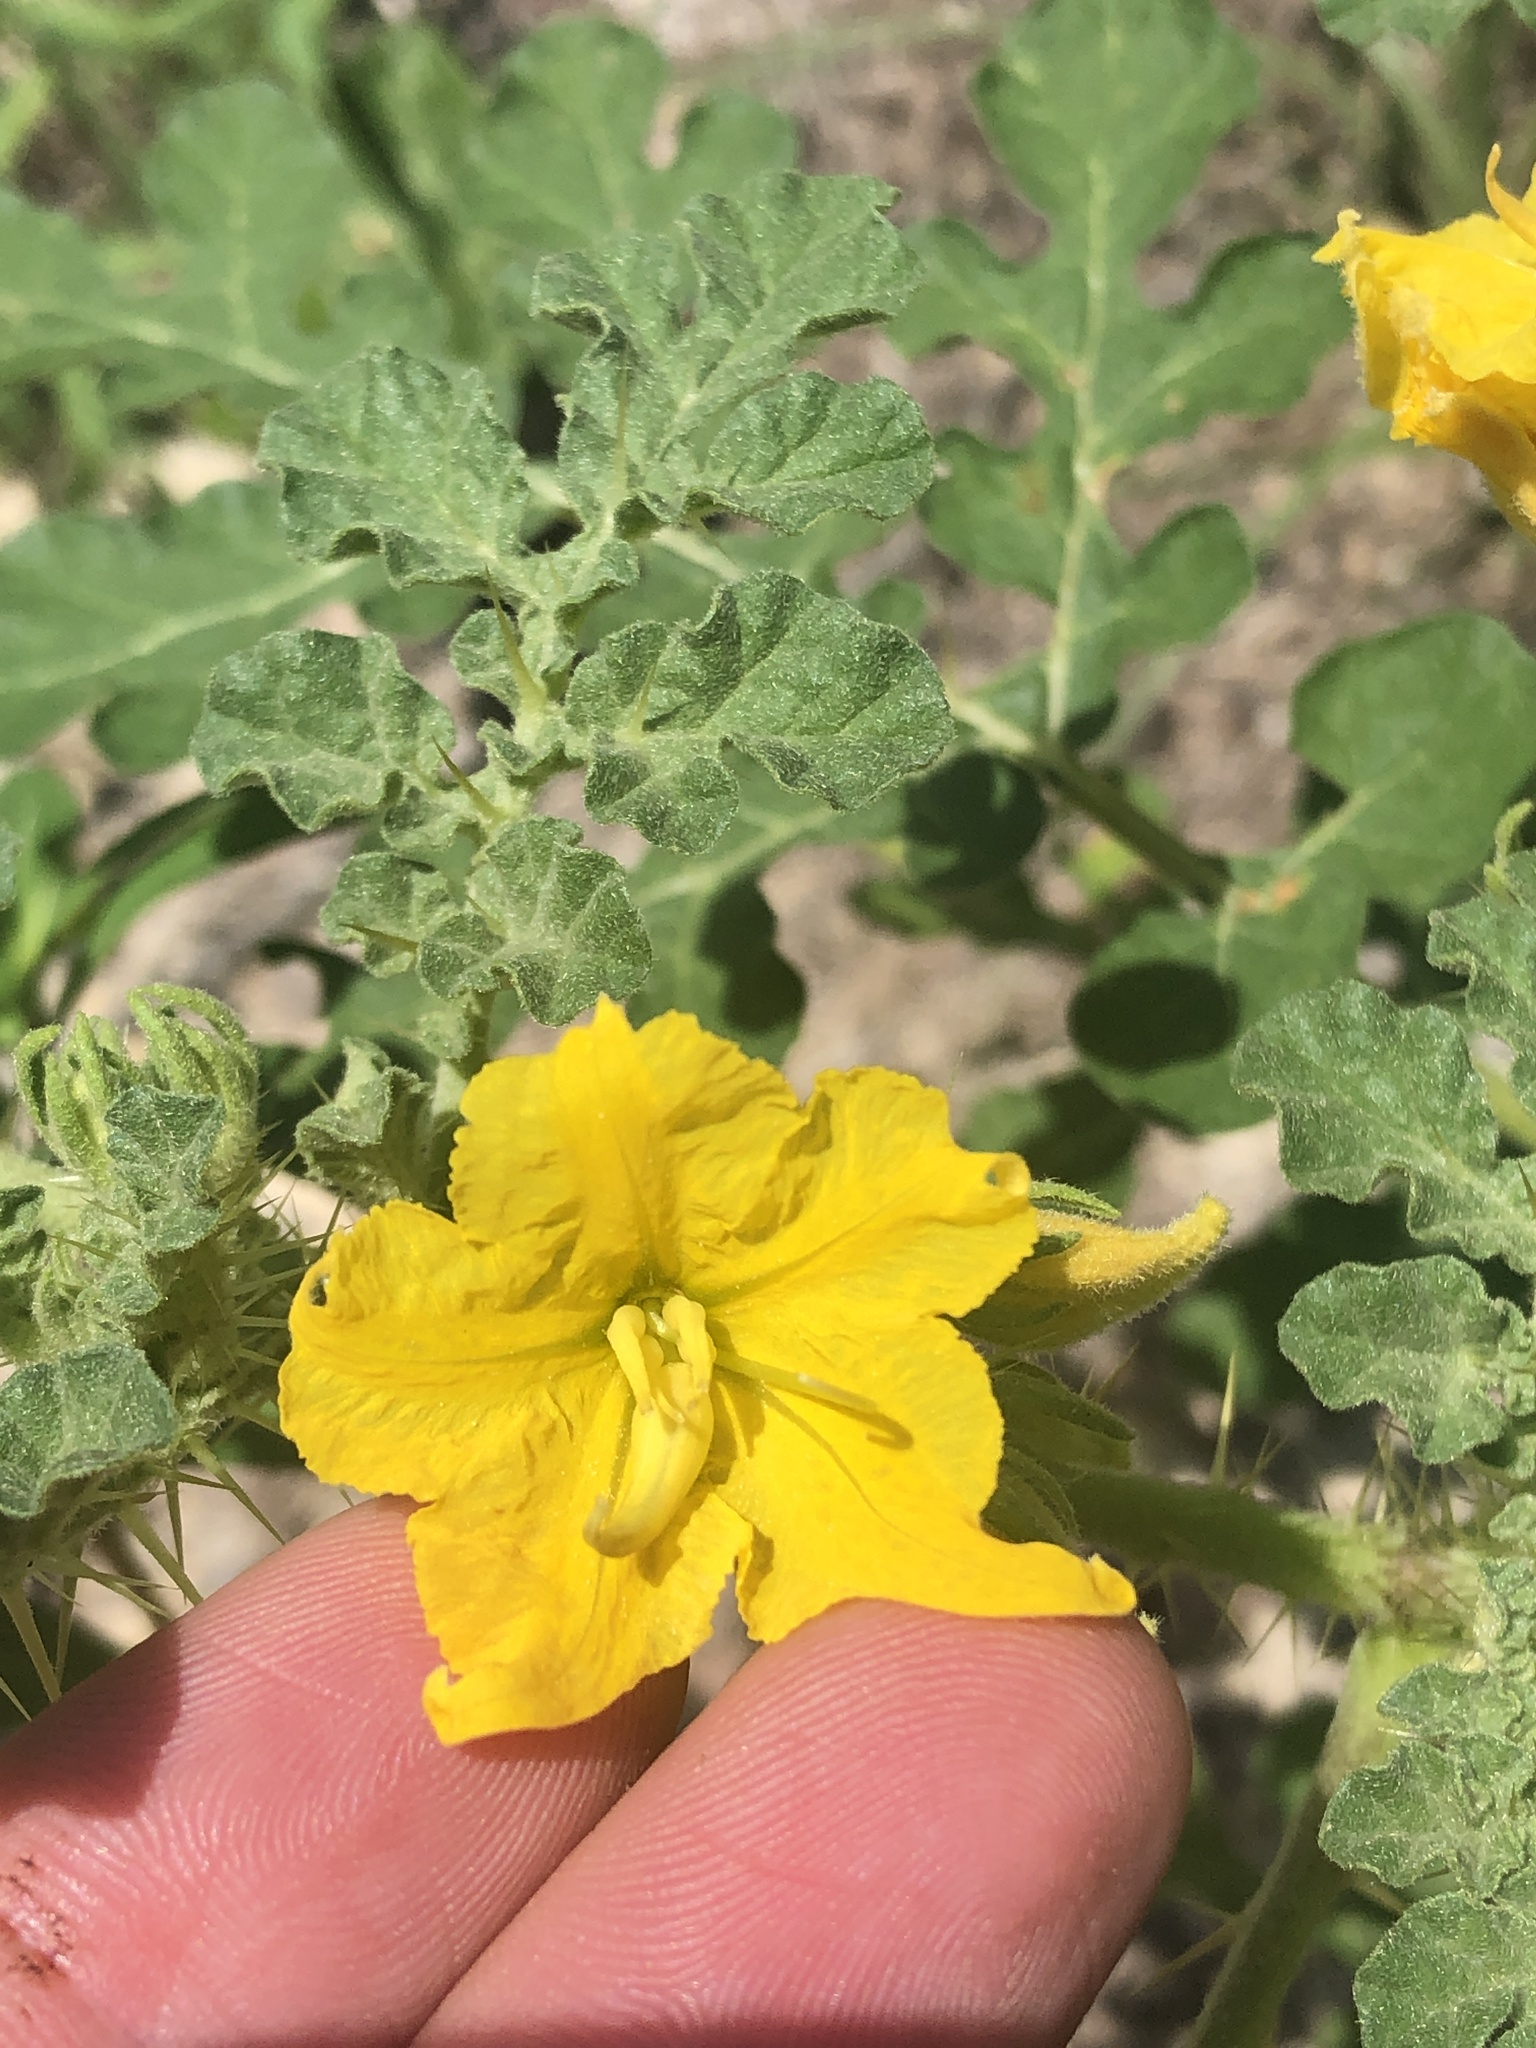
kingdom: Plantae
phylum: Tracheophyta
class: Magnoliopsida
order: Solanales
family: Solanaceae
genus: Solanum
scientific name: Solanum angustifolium
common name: Buffalobur nightshade
